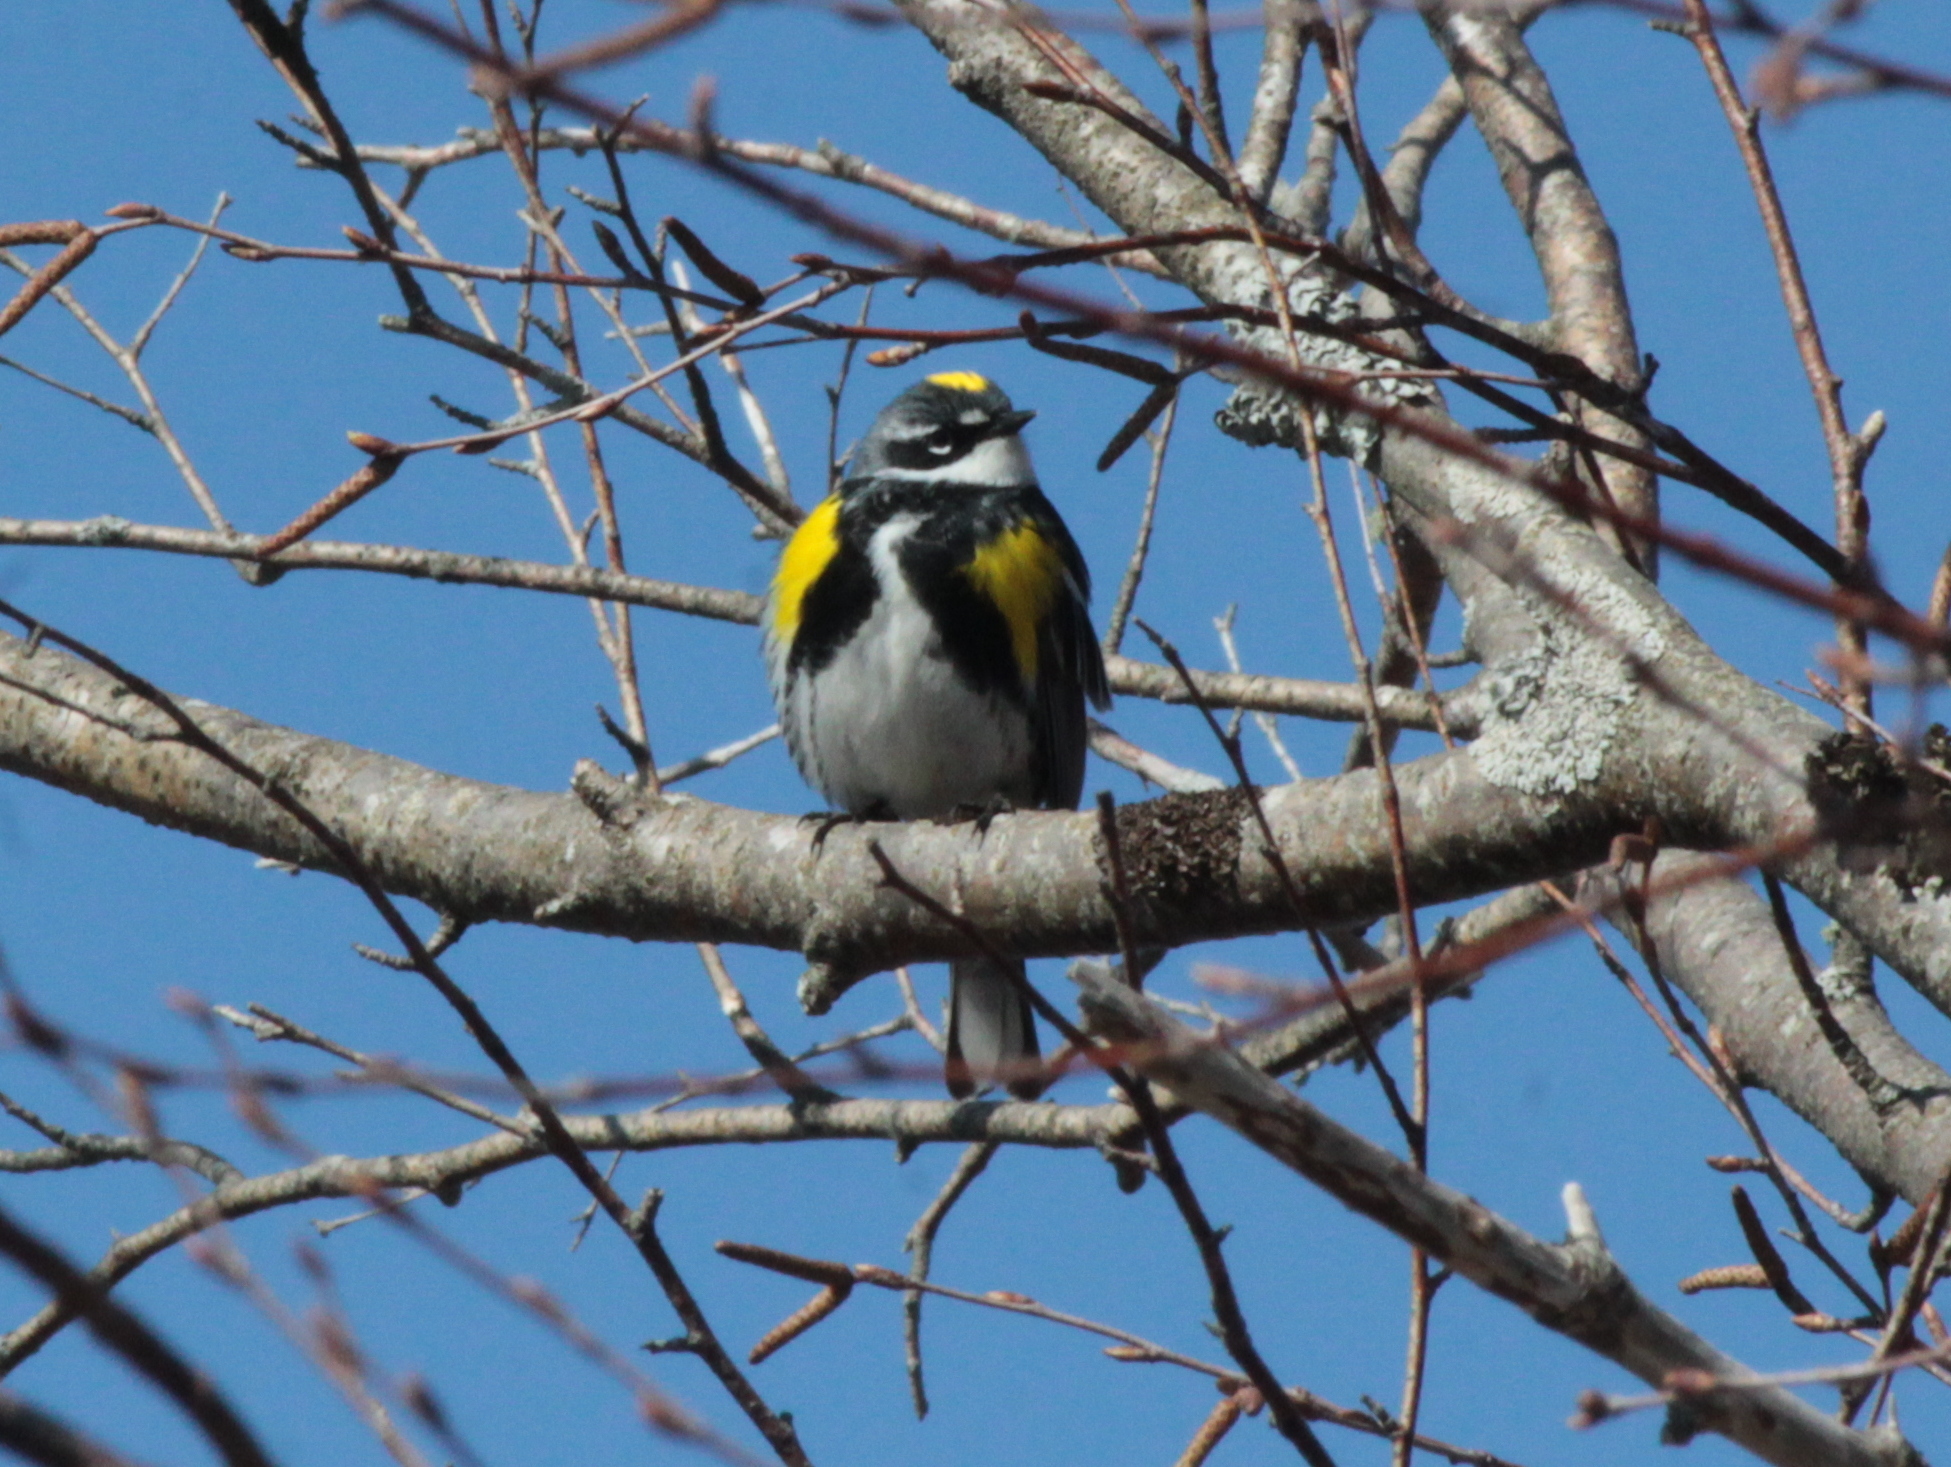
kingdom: Animalia
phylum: Chordata
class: Aves
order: Passeriformes
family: Parulidae
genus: Setophaga
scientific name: Setophaga coronata
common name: Myrtle warbler
